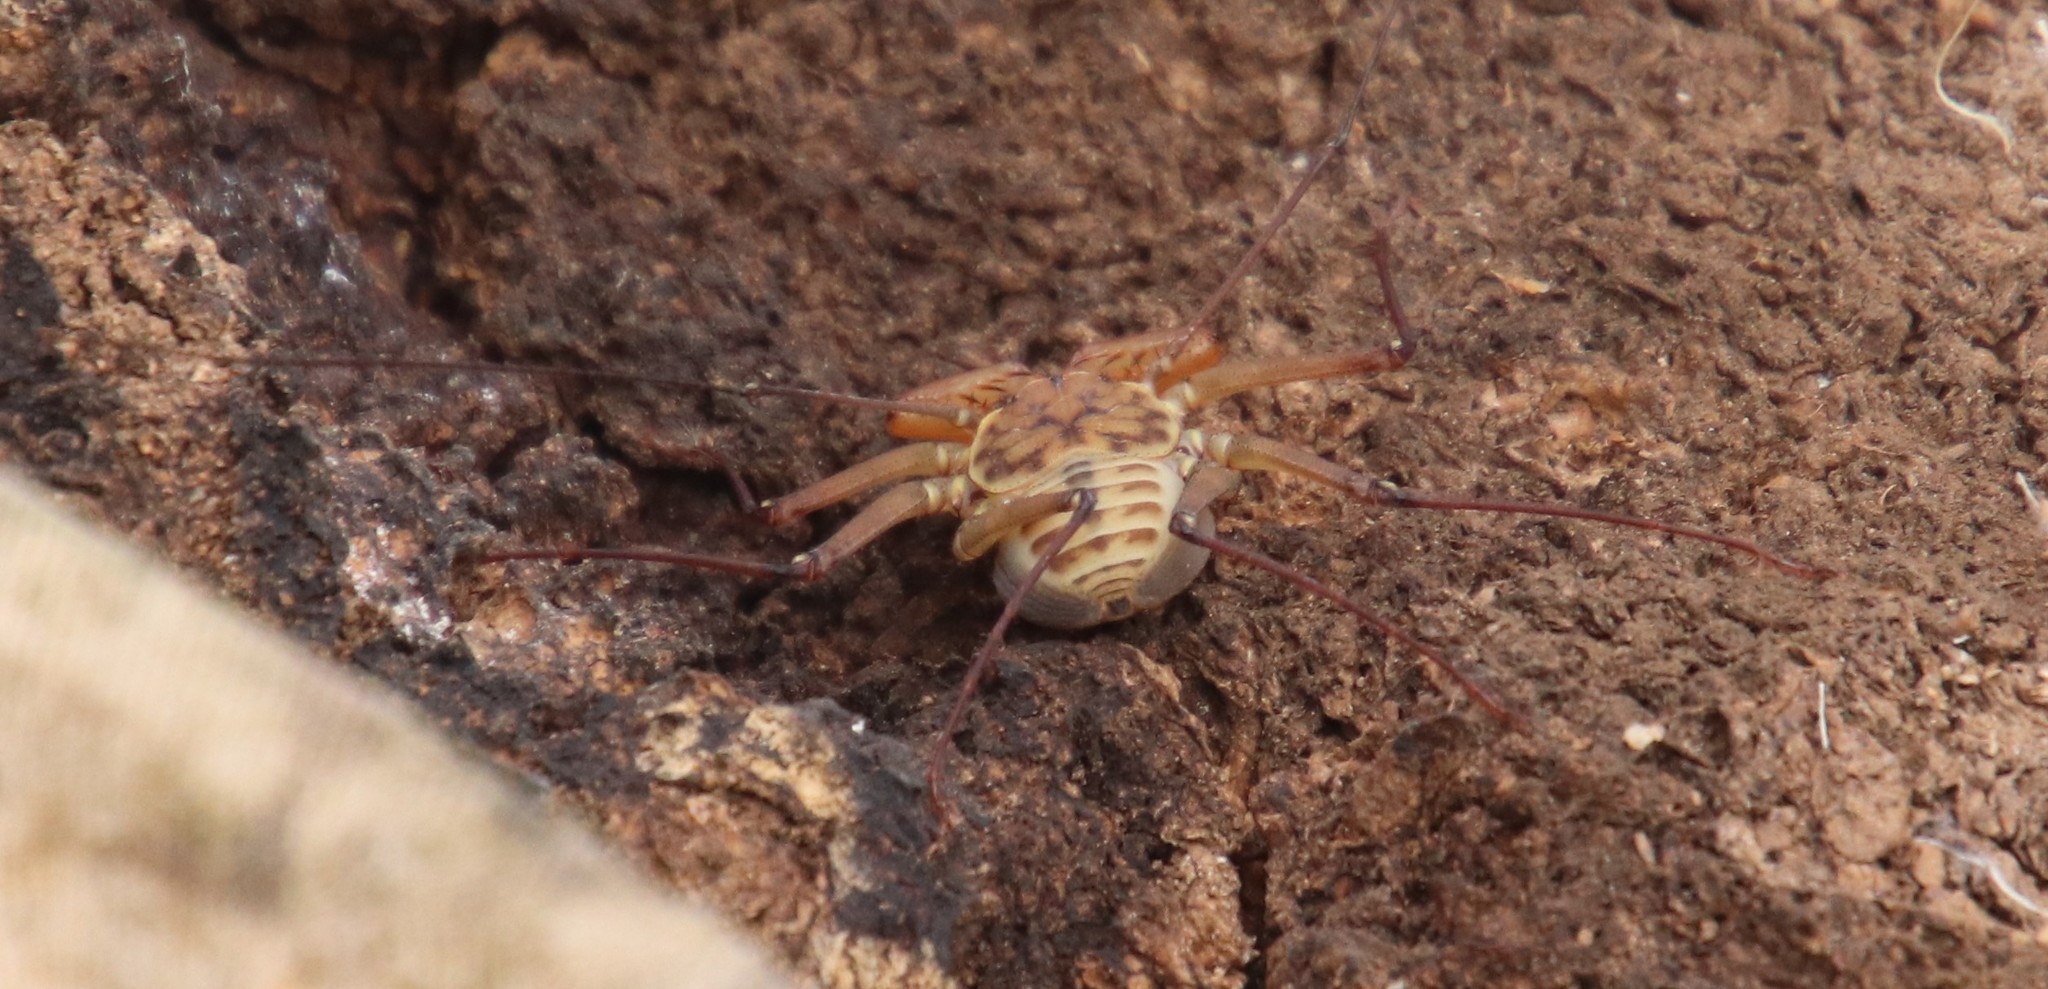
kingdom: Animalia
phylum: Arthropoda
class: Arachnida
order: Amblypygi
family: Phrynidae
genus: Phrynus
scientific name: Phrynus asperatipes
